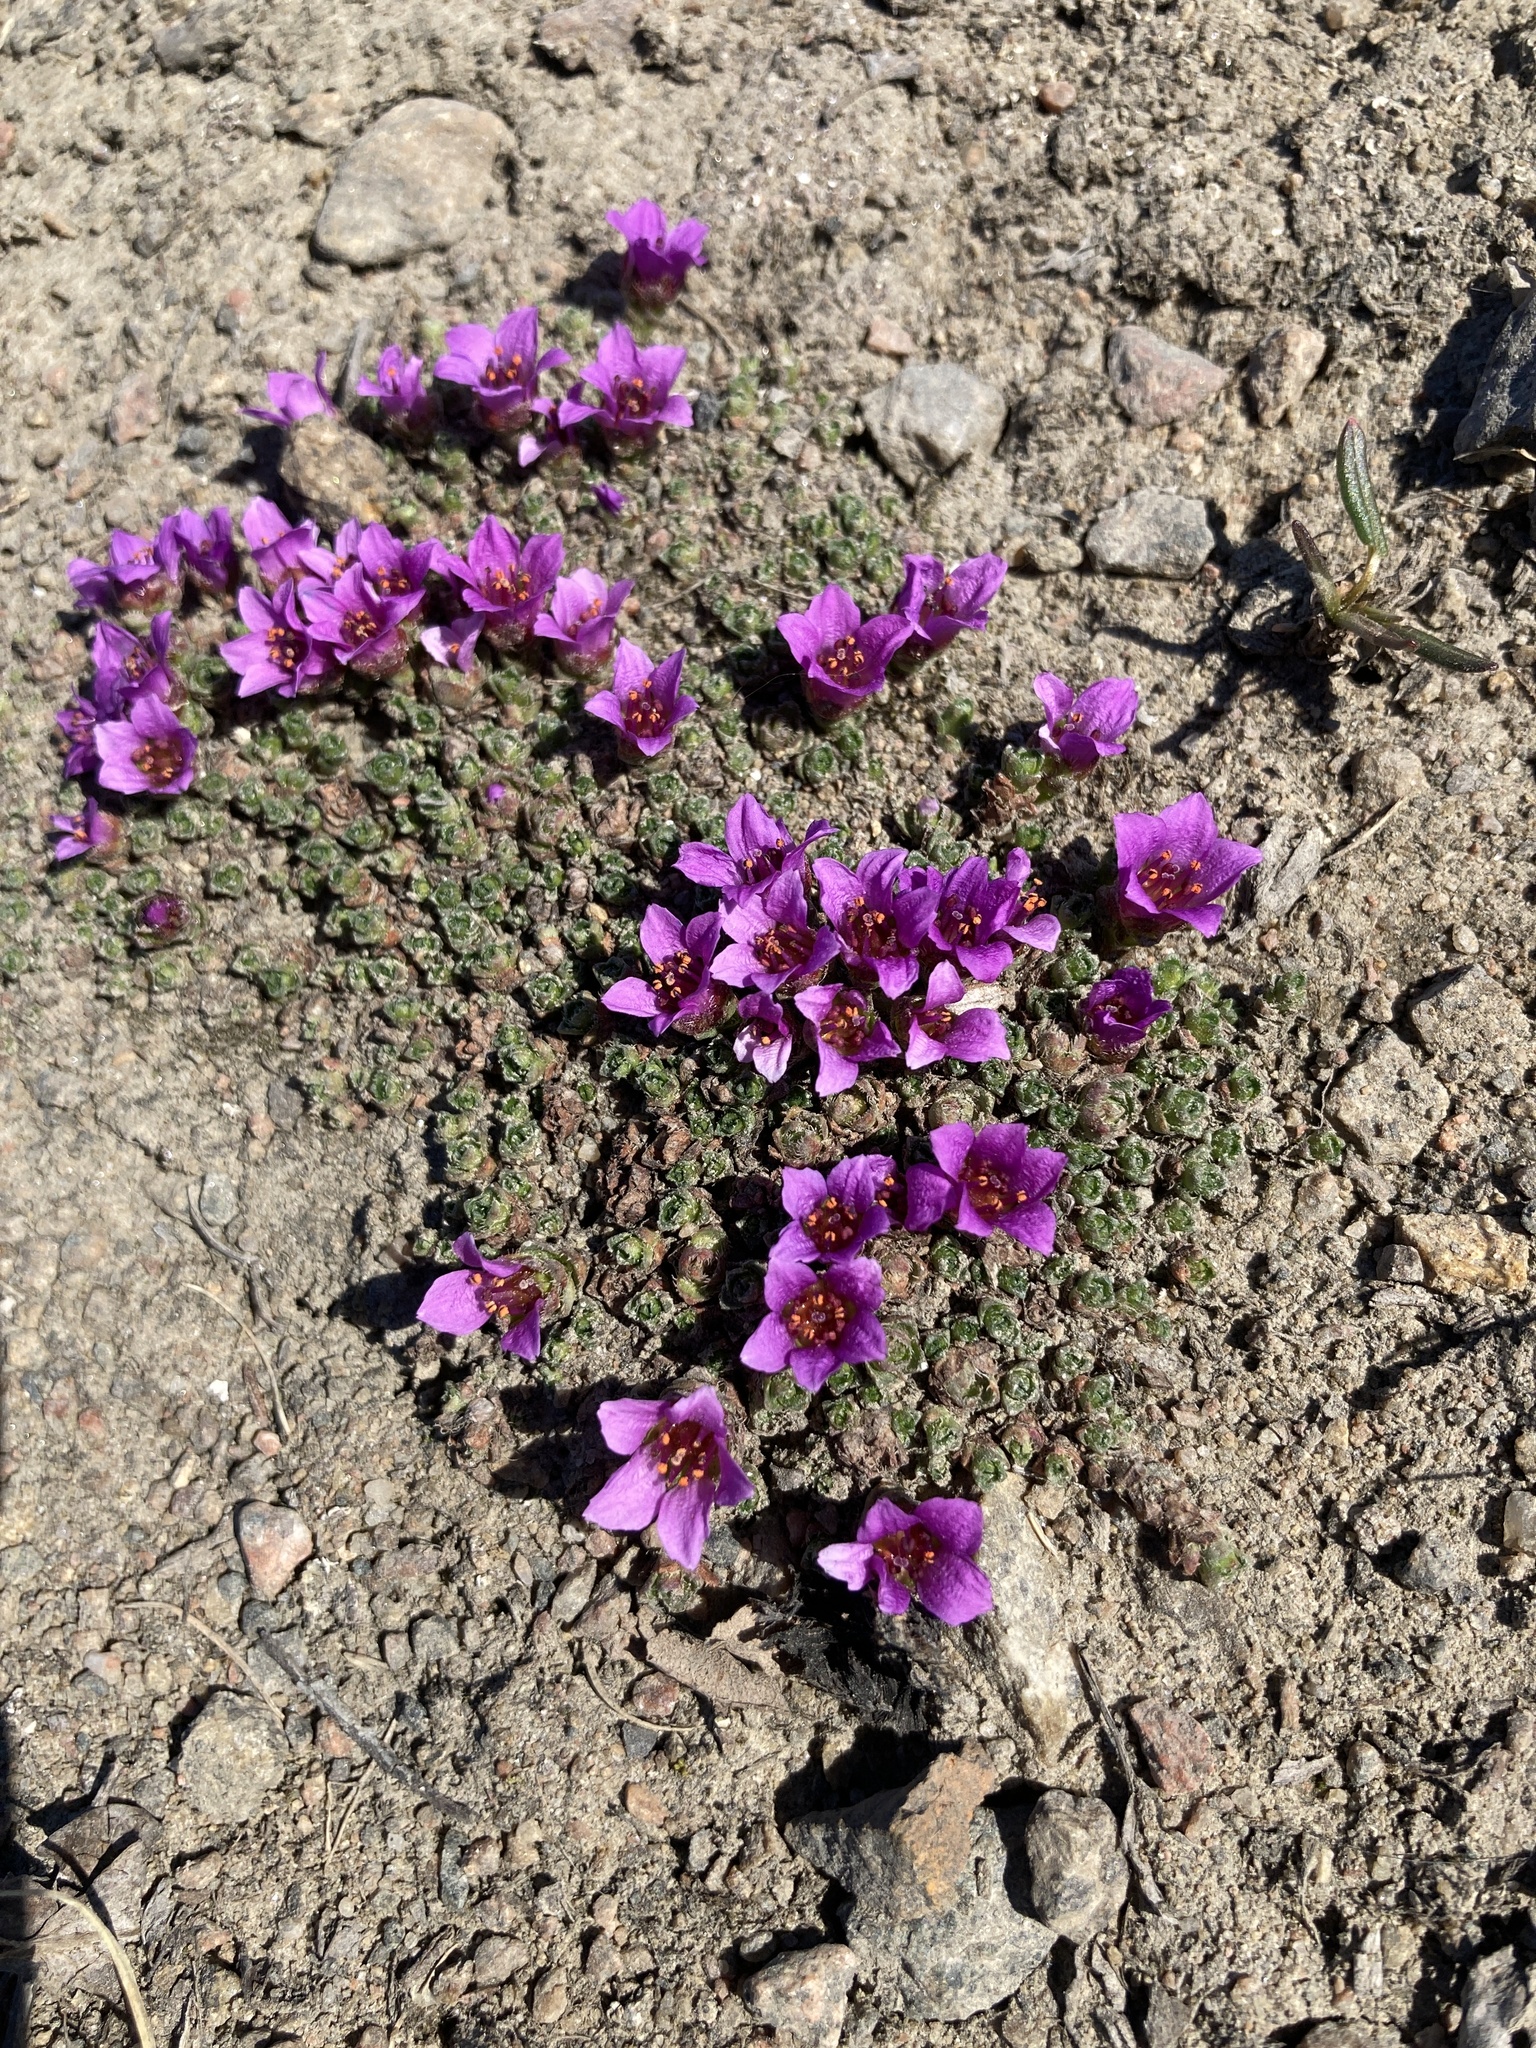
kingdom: Plantae
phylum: Tracheophyta
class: Magnoliopsida
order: Saxifragales
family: Saxifragaceae
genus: Saxifraga
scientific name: Saxifraga oppositifolia
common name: Purple saxifrage
